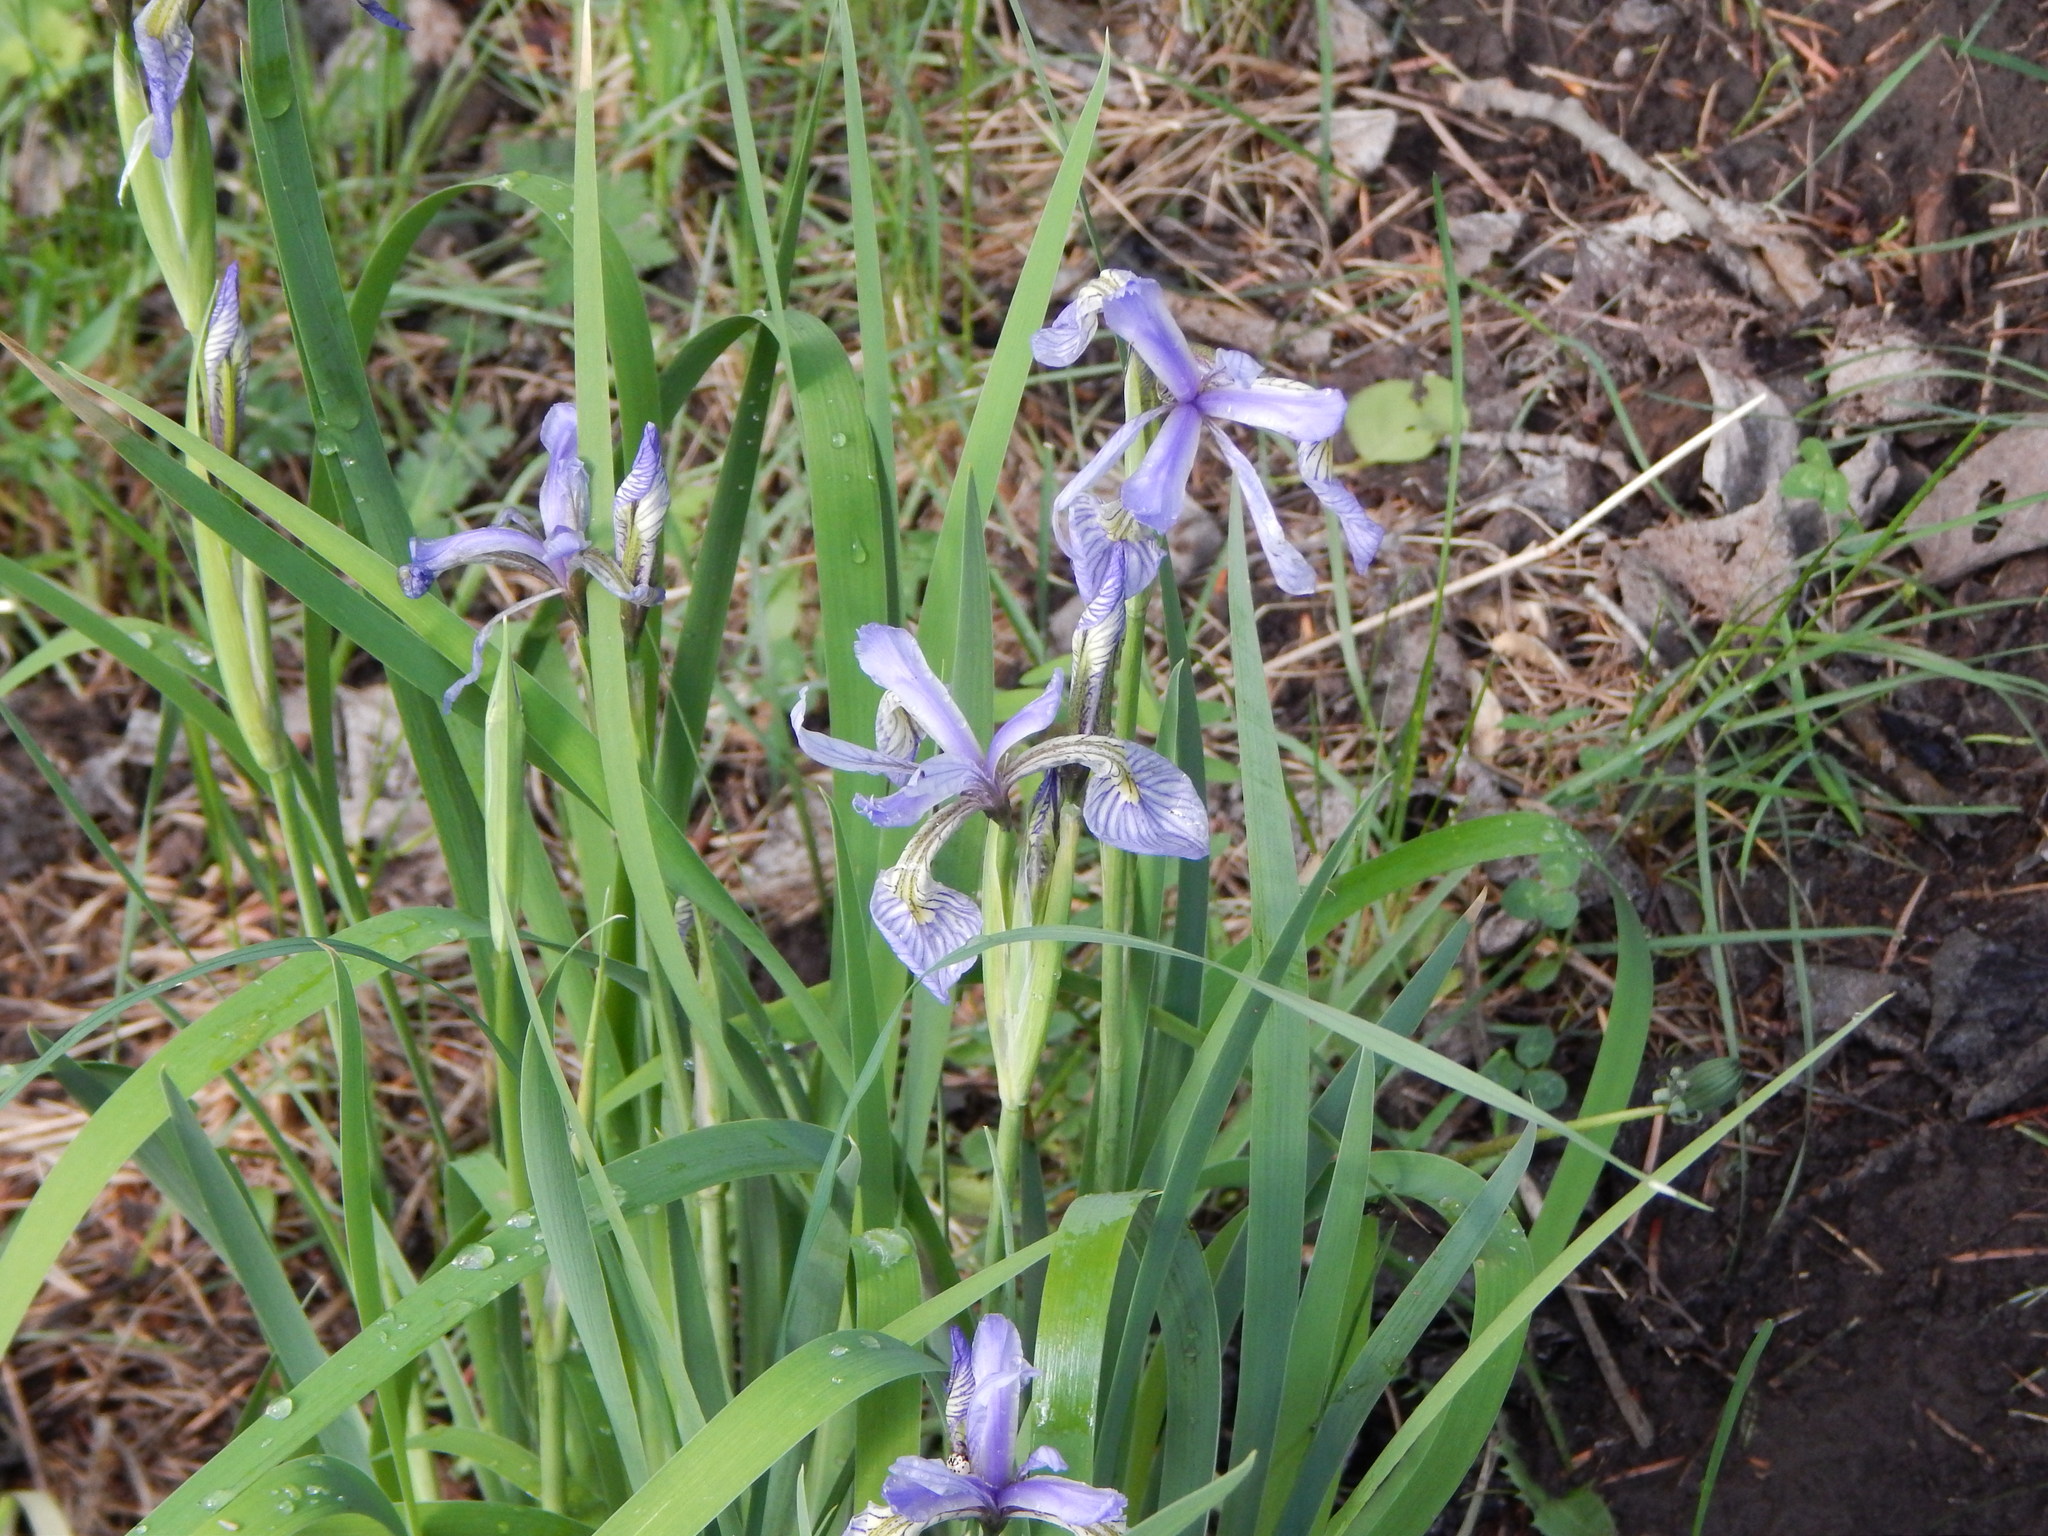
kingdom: Plantae
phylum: Tracheophyta
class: Liliopsida
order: Asparagales
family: Iridaceae
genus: Iris
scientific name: Iris missouriensis
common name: Rocky mountain iris
